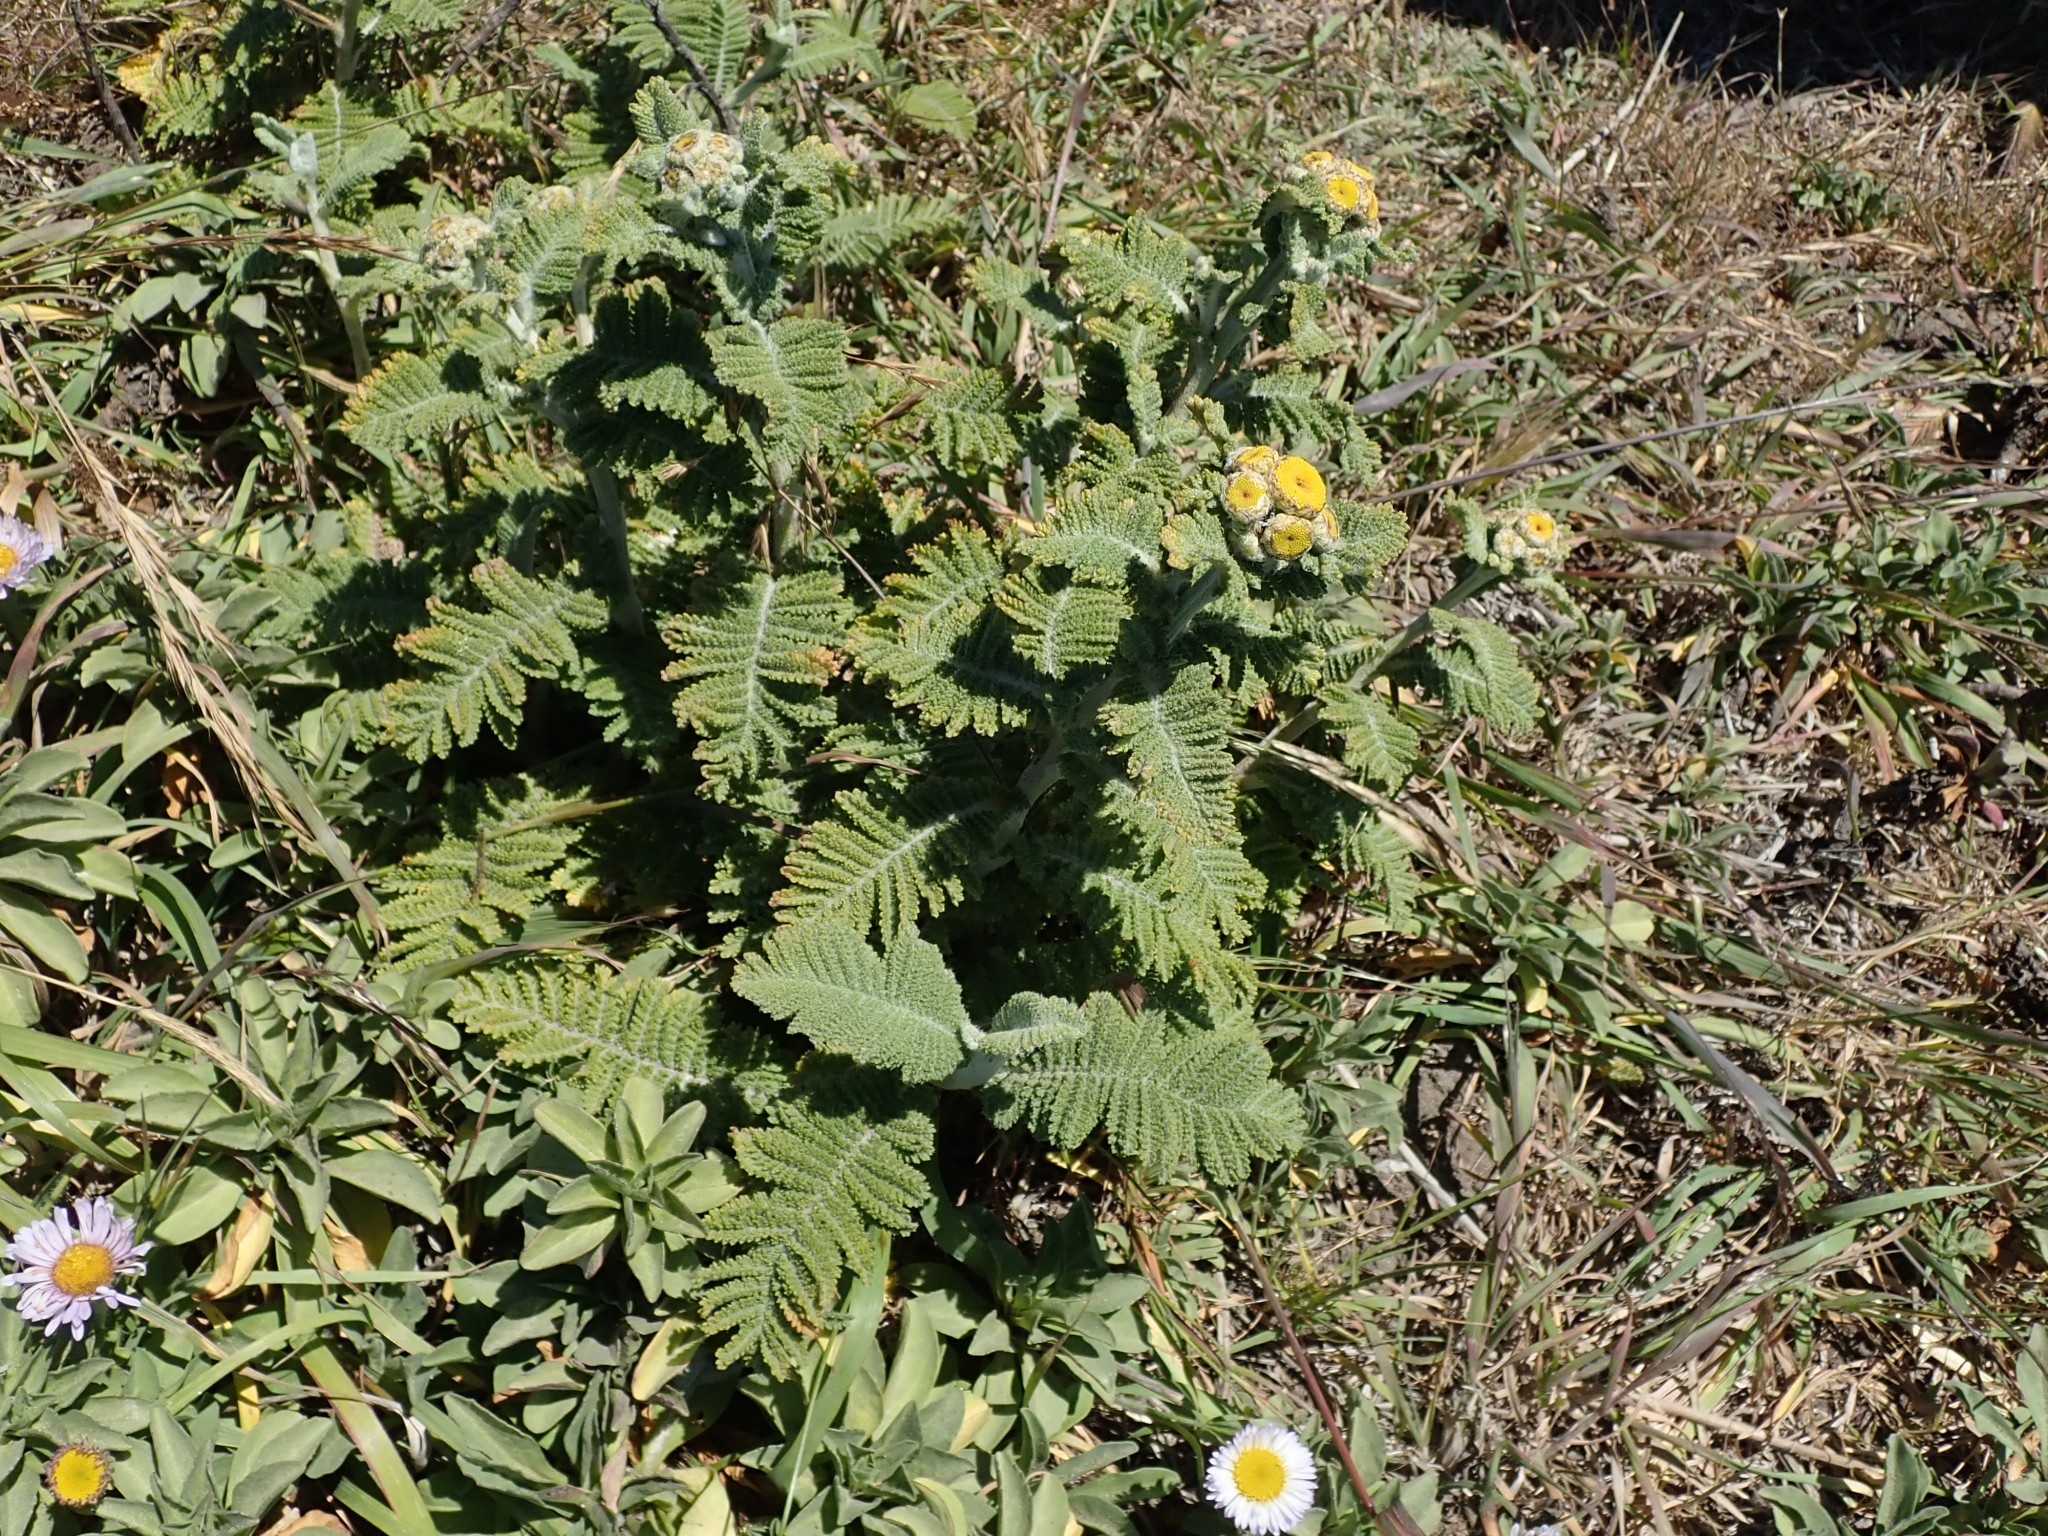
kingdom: Plantae
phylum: Tracheophyta
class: Magnoliopsida
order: Asterales
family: Asteraceae
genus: Tanacetum
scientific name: Tanacetum bipinnatum
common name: Dwarf tansy
